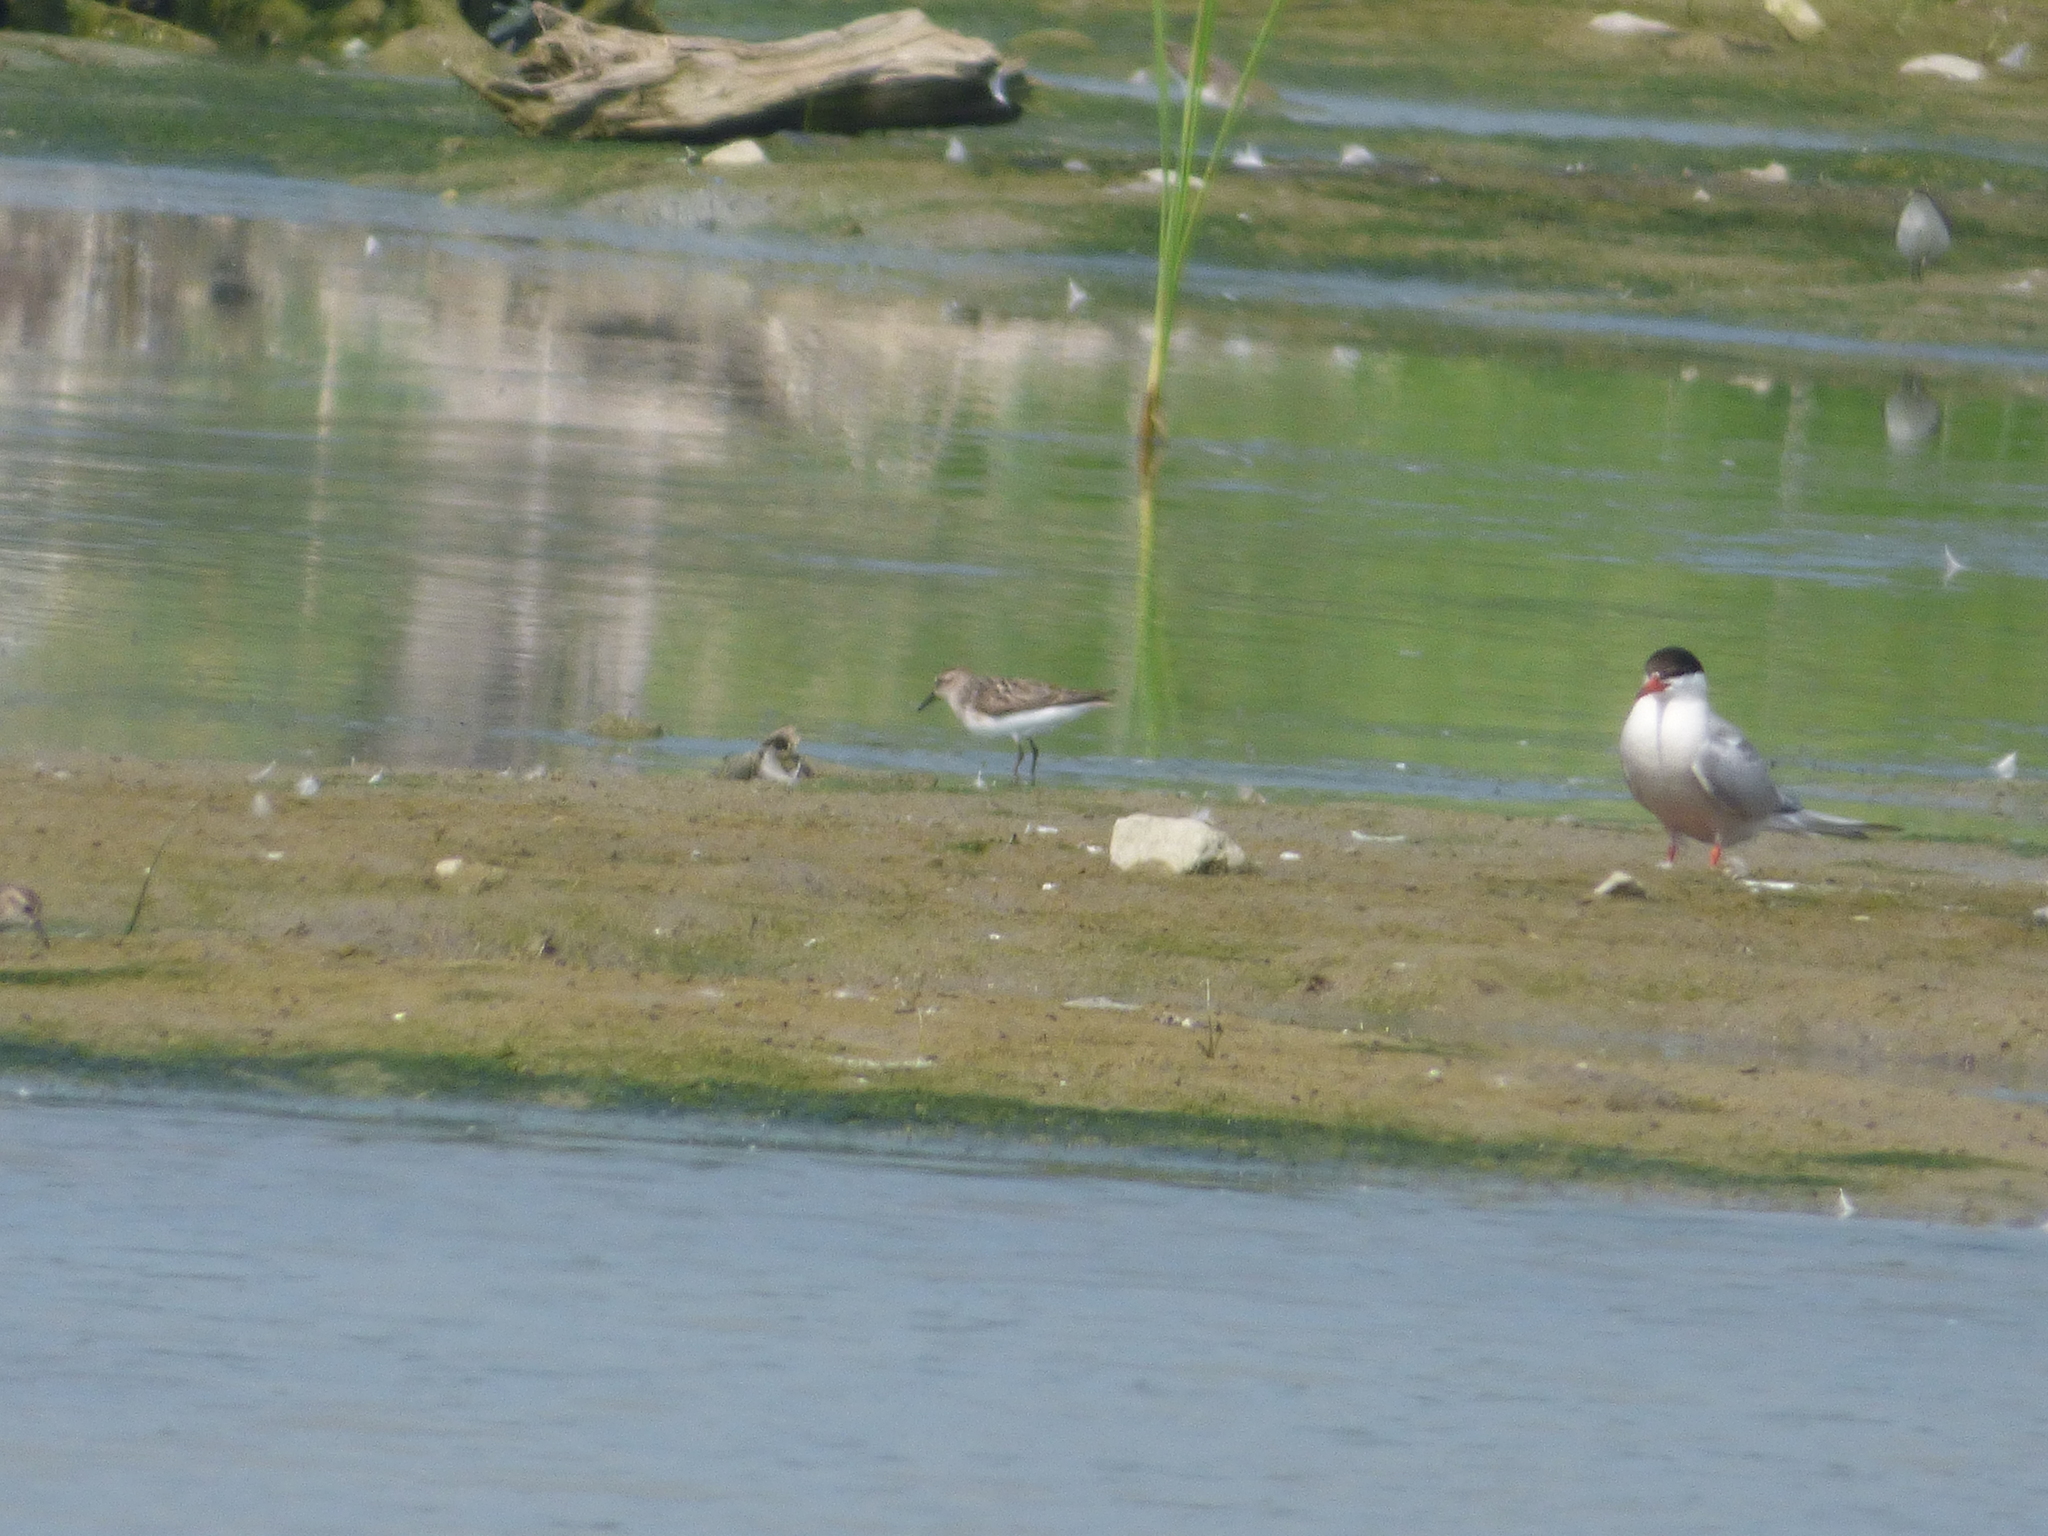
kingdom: Animalia
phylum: Chordata
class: Aves
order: Charadriiformes
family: Scolopacidae
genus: Calidris
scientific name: Calidris pusilla
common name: Semipalmated sandpiper
